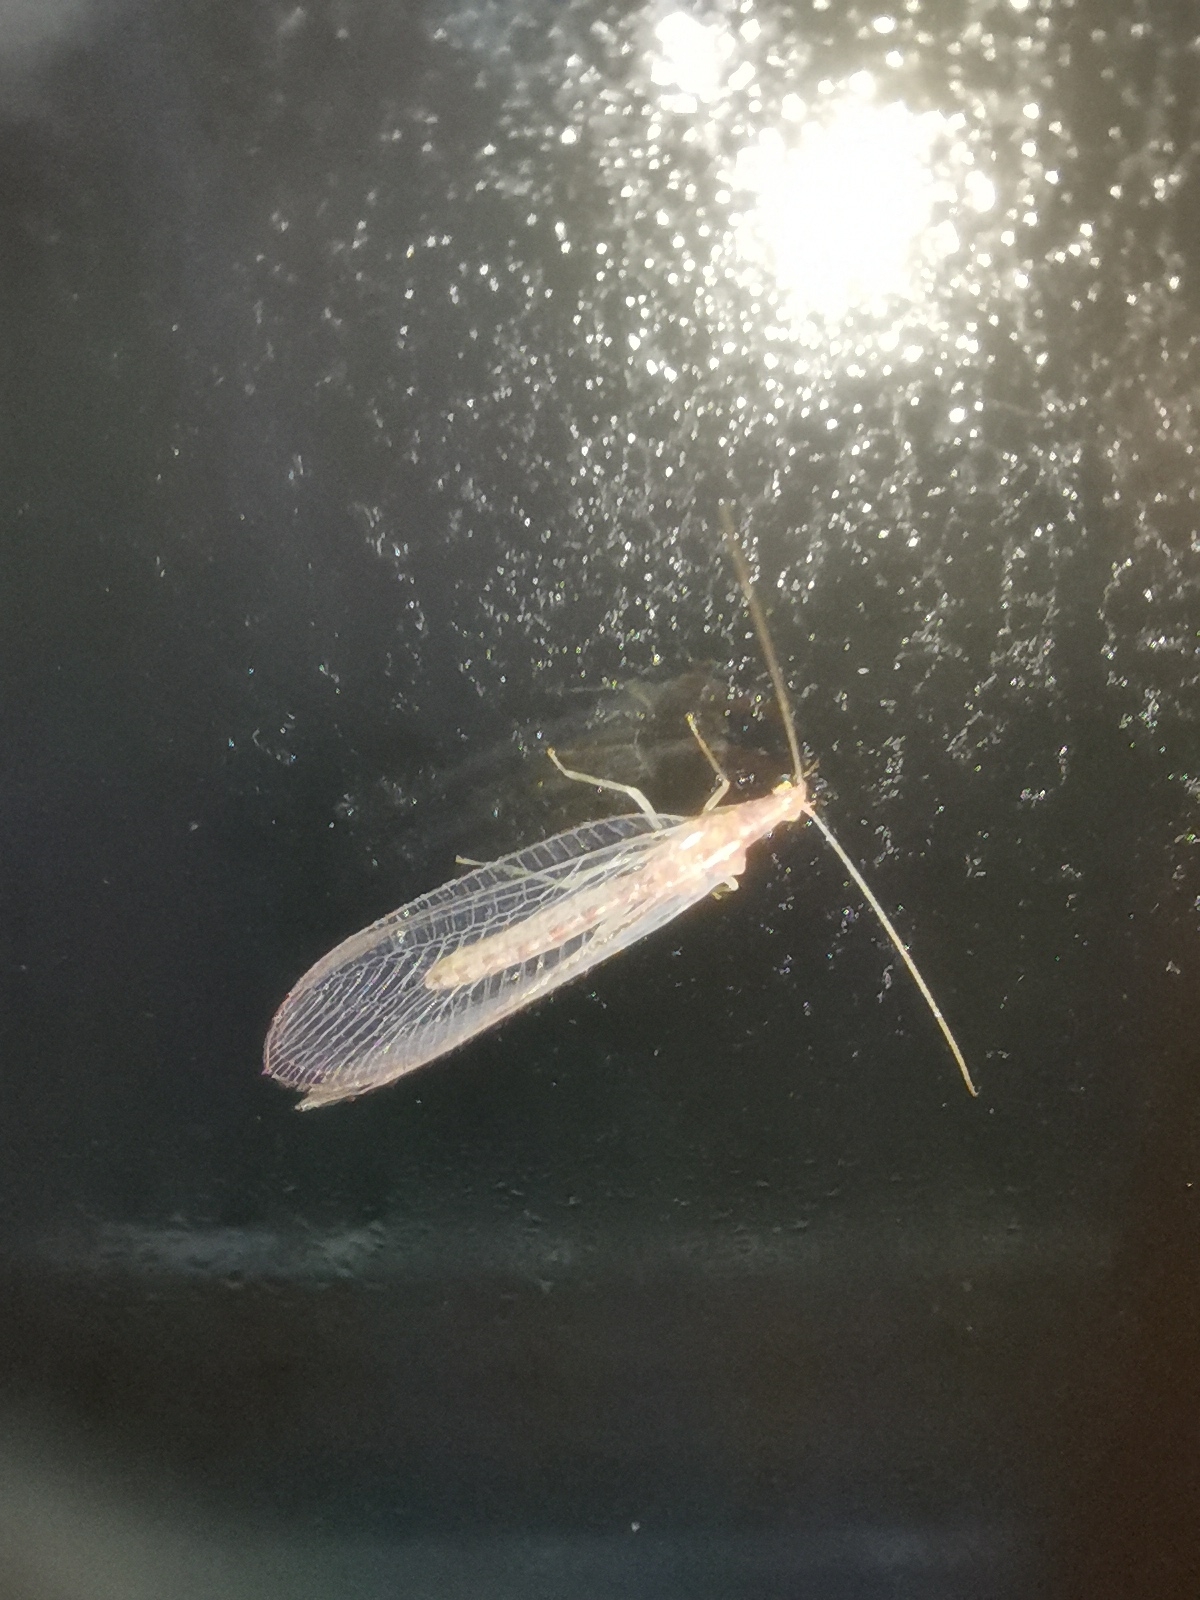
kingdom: Animalia
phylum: Arthropoda
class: Insecta
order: Neuroptera
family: Chrysopidae
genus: Chrysoperla
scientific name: Chrysoperla
